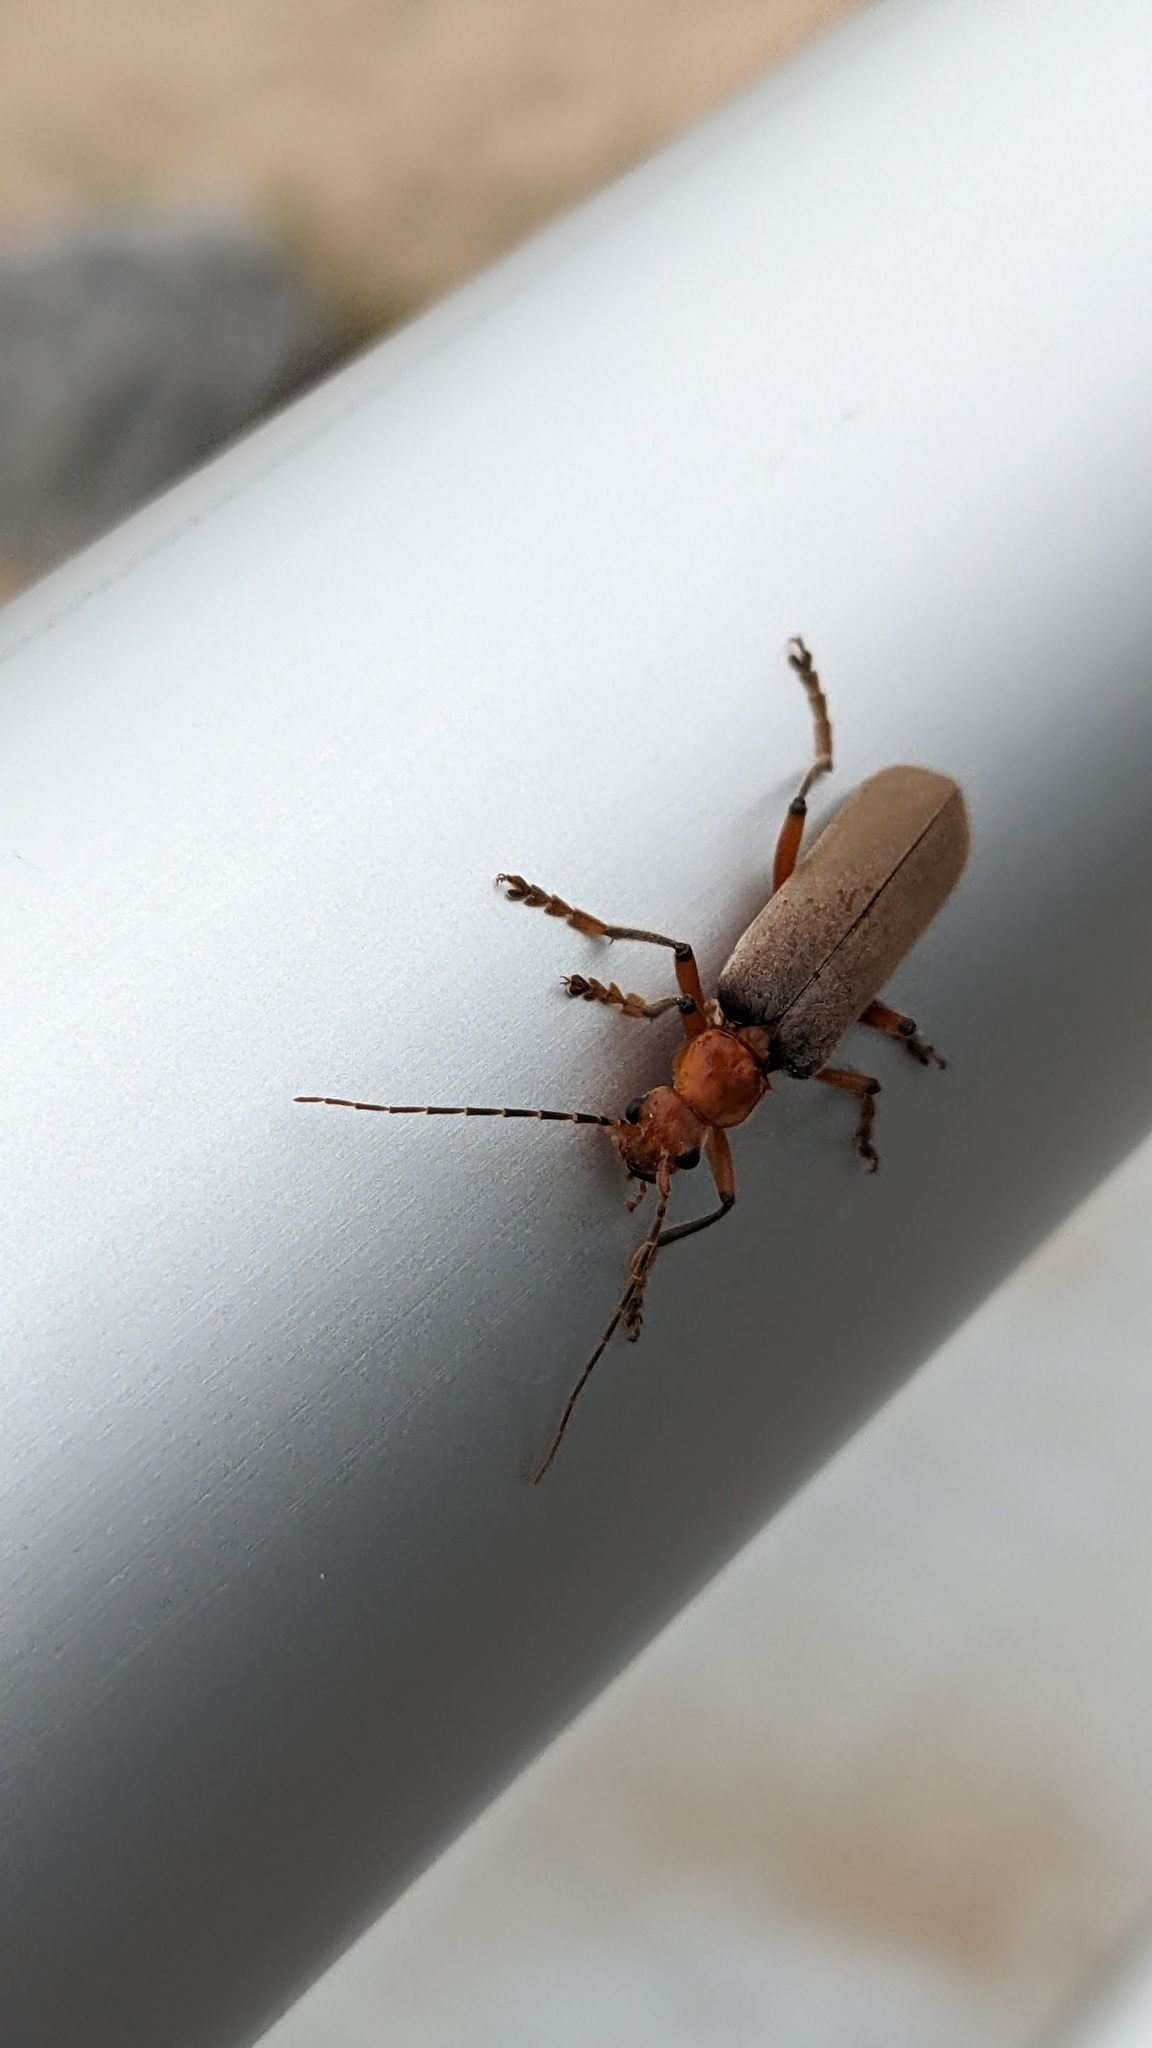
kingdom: Animalia
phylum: Arthropoda
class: Insecta
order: Coleoptera
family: Cantharidae
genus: Pacificanthia
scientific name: Pacificanthia consors
